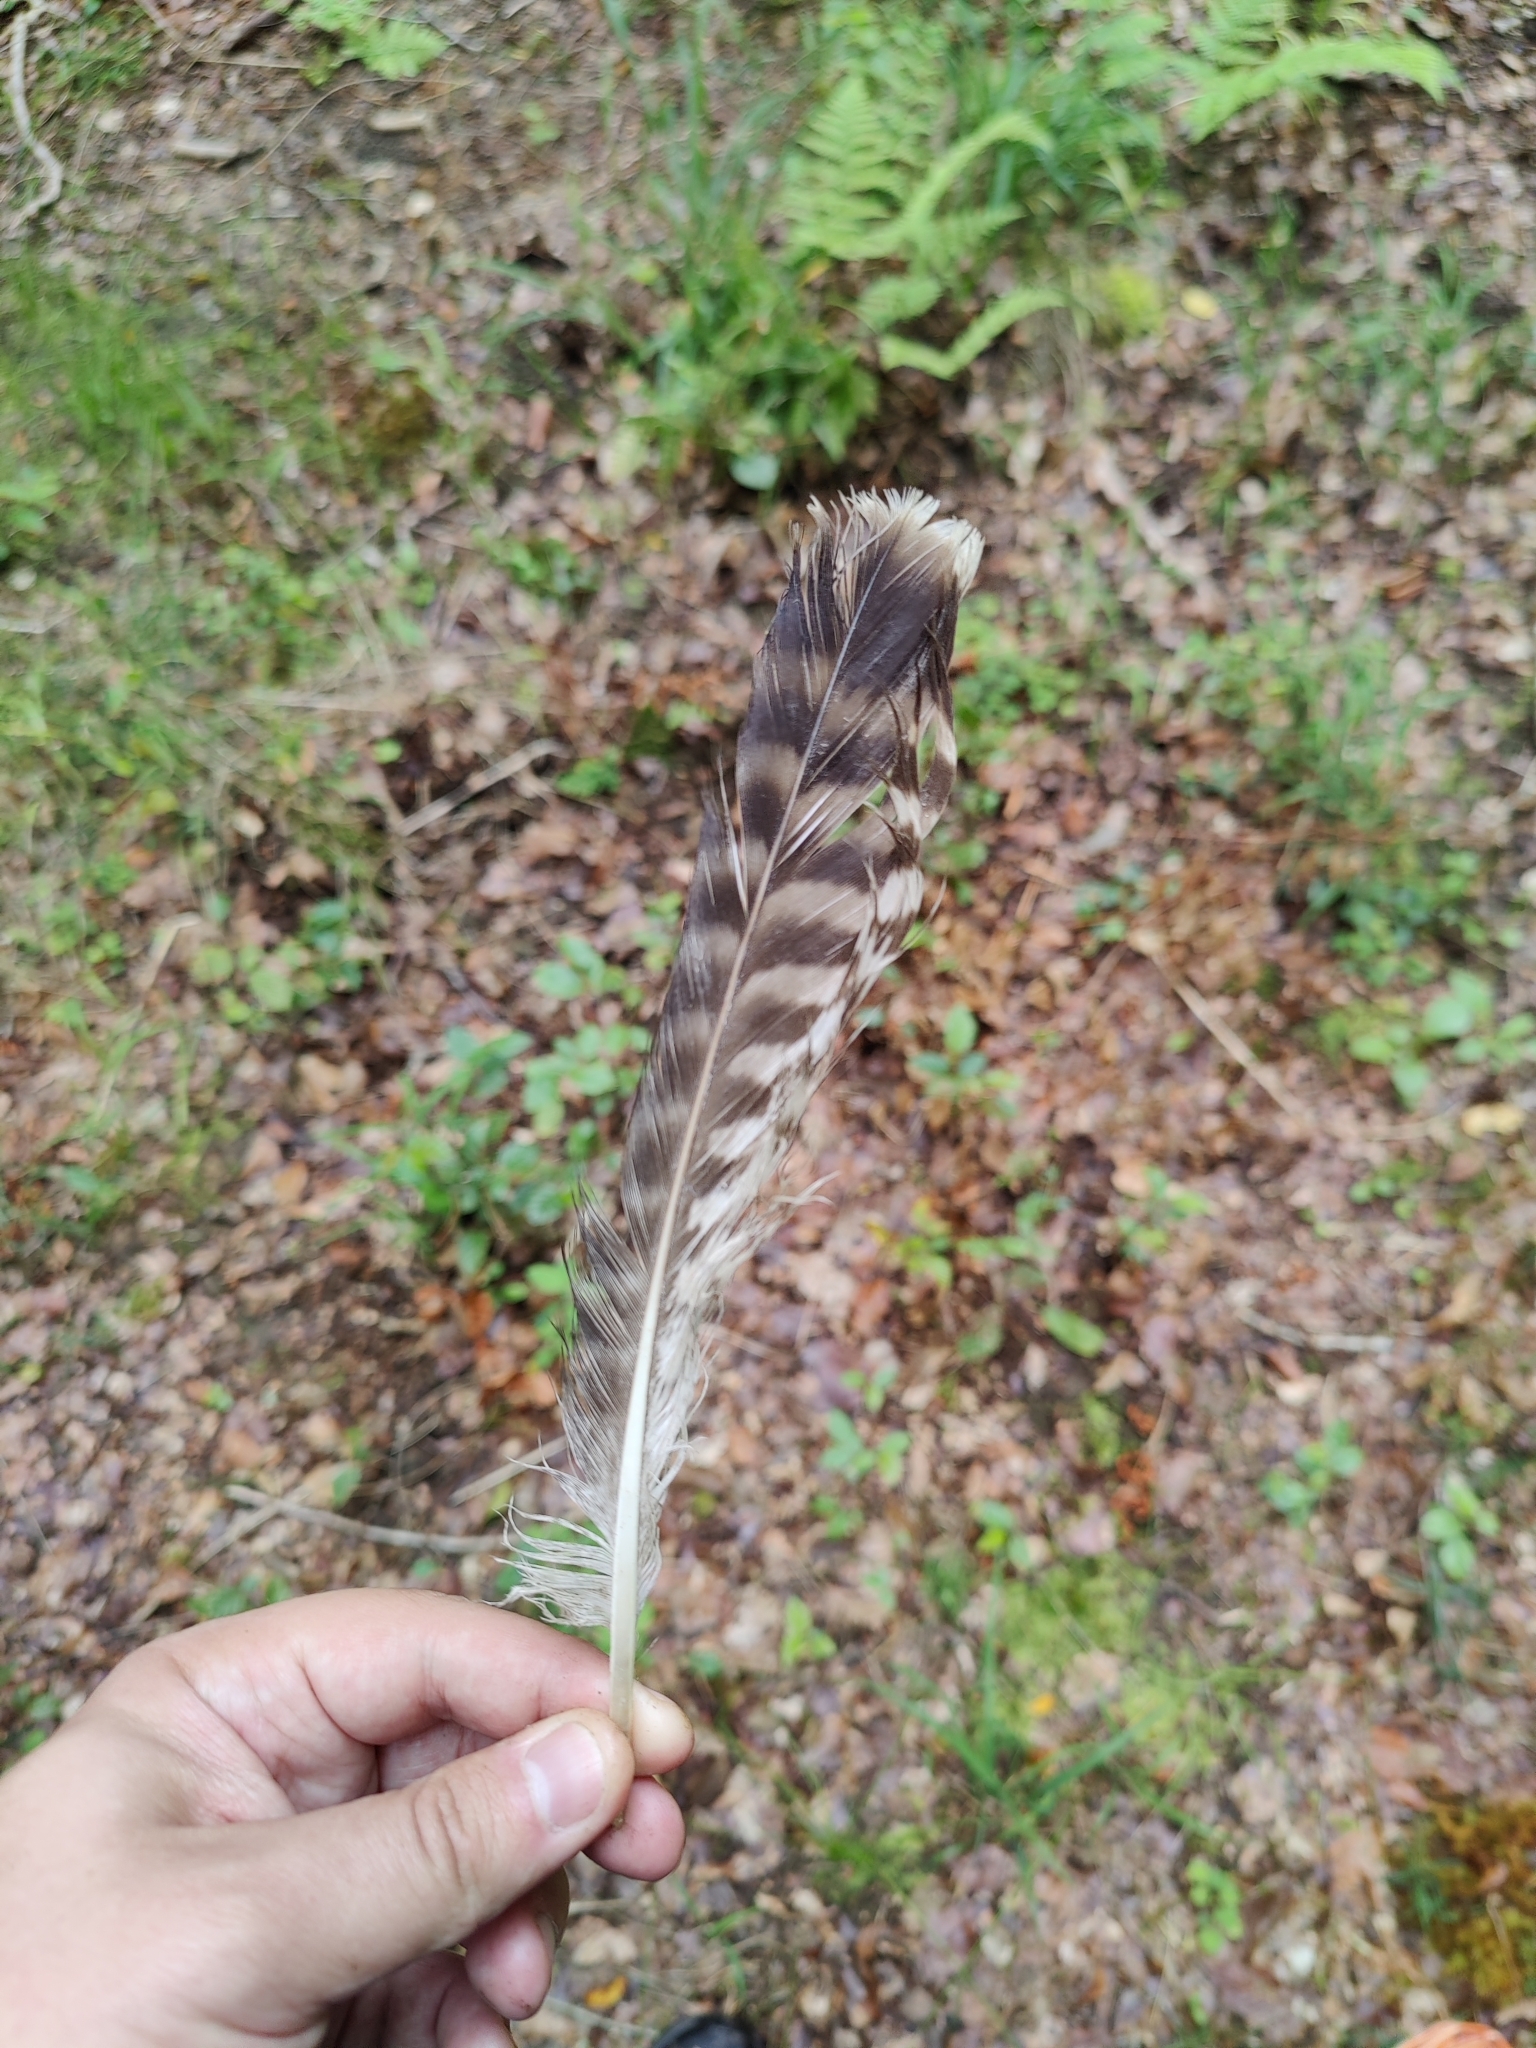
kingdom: Animalia
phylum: Chordata
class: Aves
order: Accipitriformes
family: Accipitridae
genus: Buteo
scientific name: Buteo buteo
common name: Common buzzard
